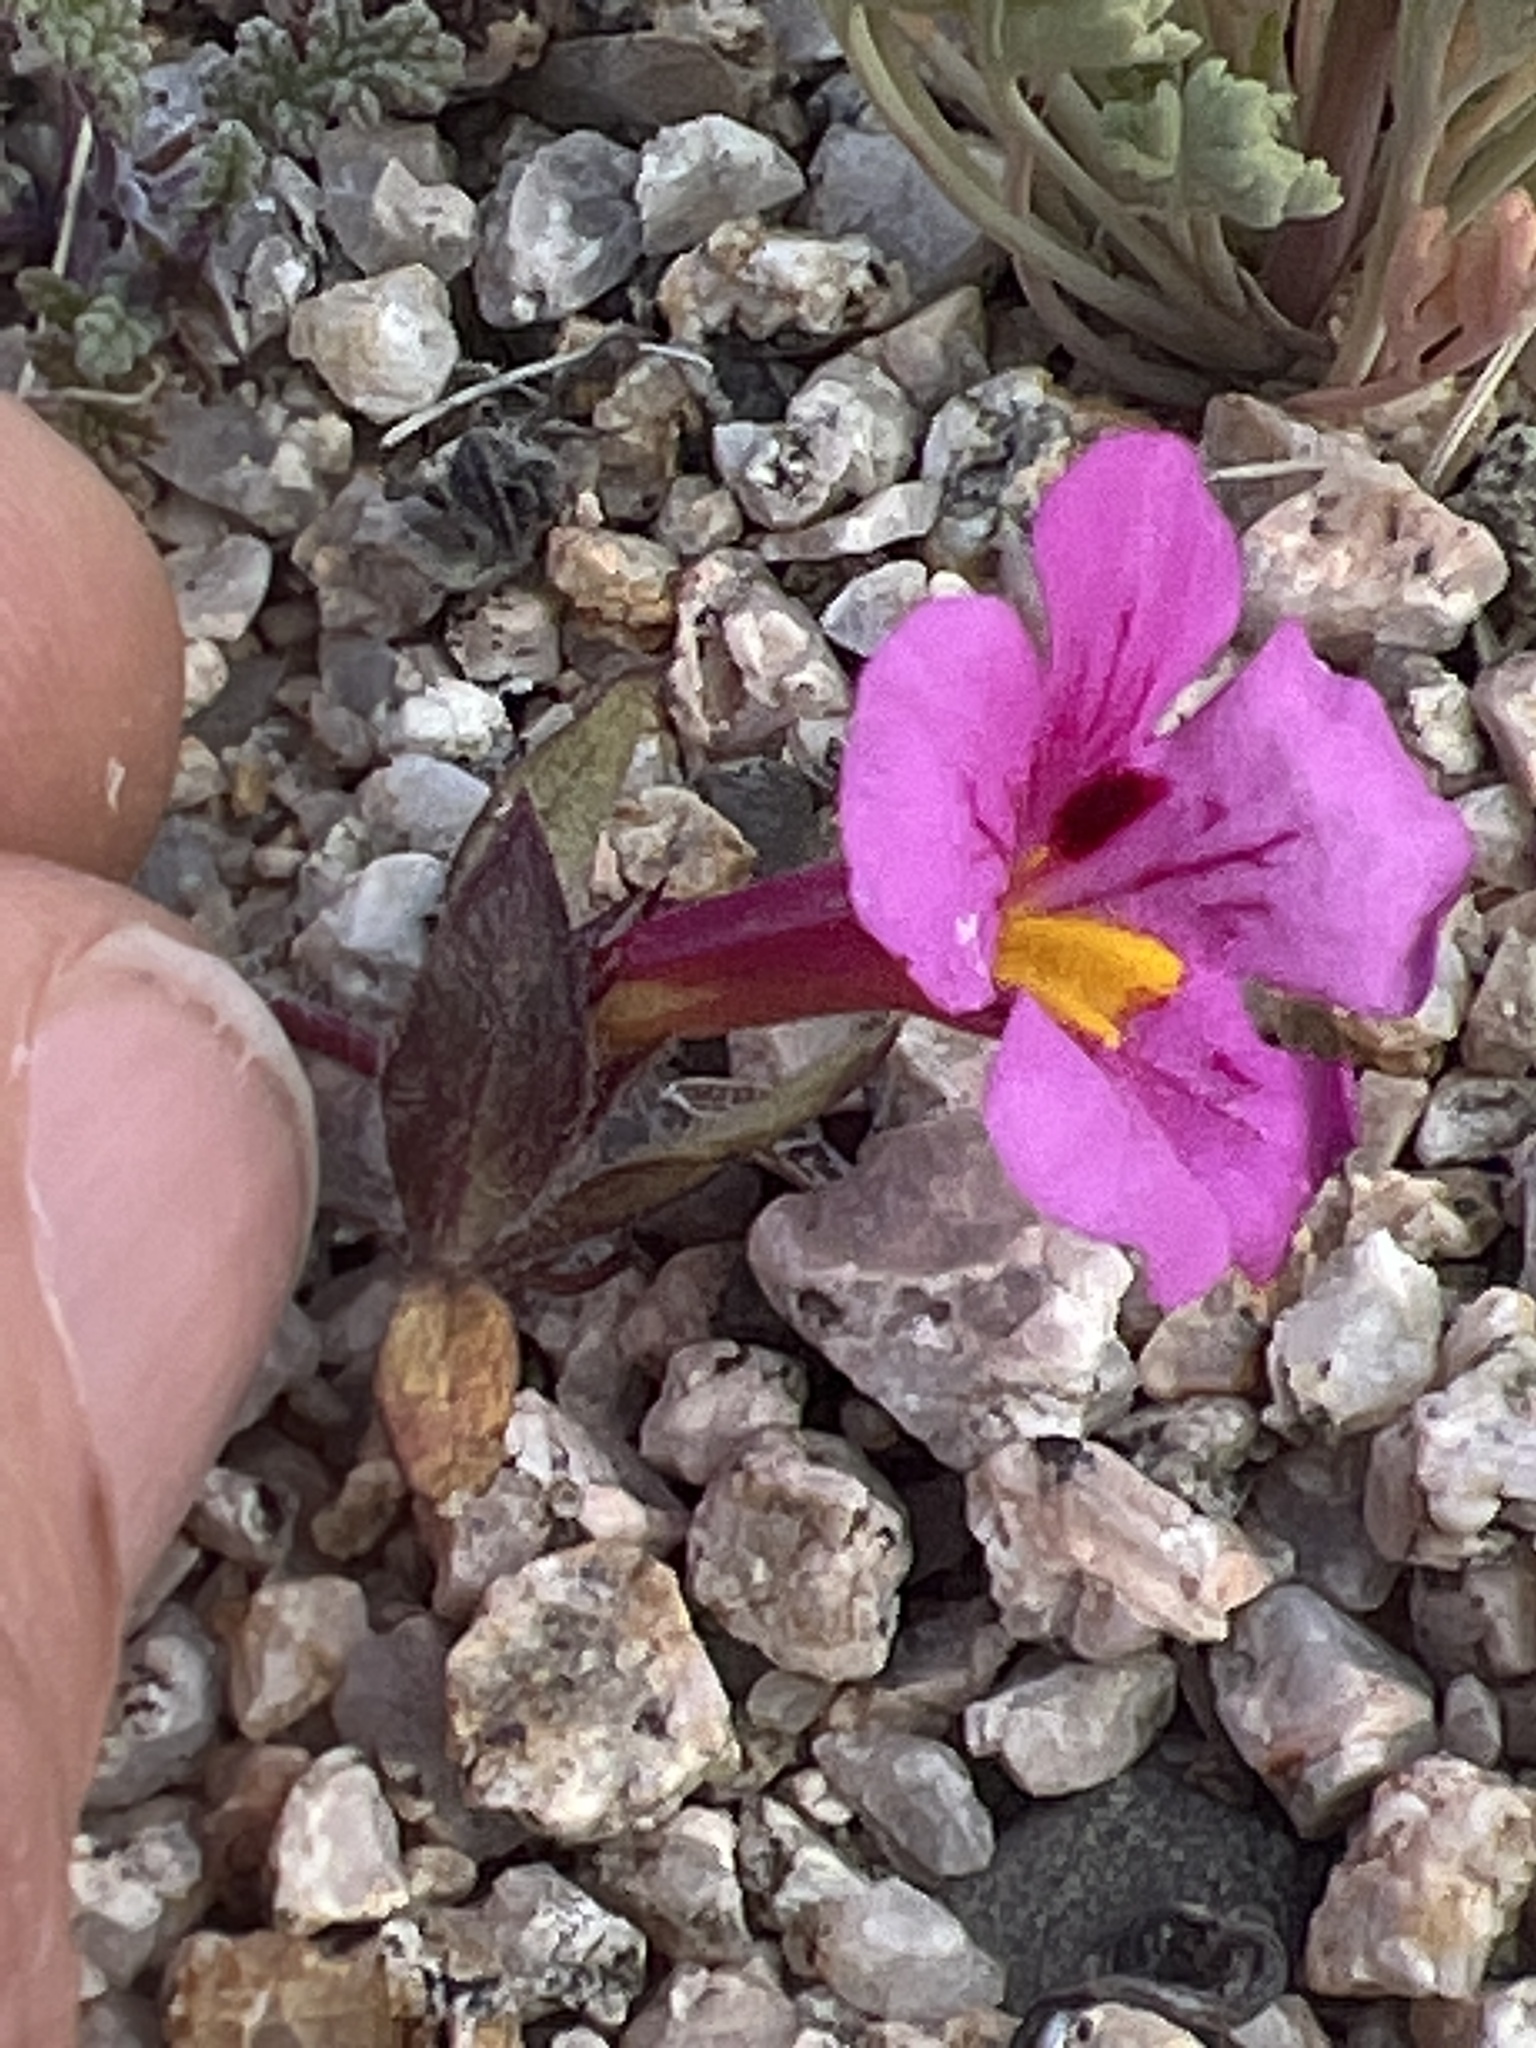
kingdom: Plantae
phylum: Tracheophyta
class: Magnoliopsida
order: Lamiales
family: Phrymaceae
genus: Diplacus
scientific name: Diplacus bigelovii
